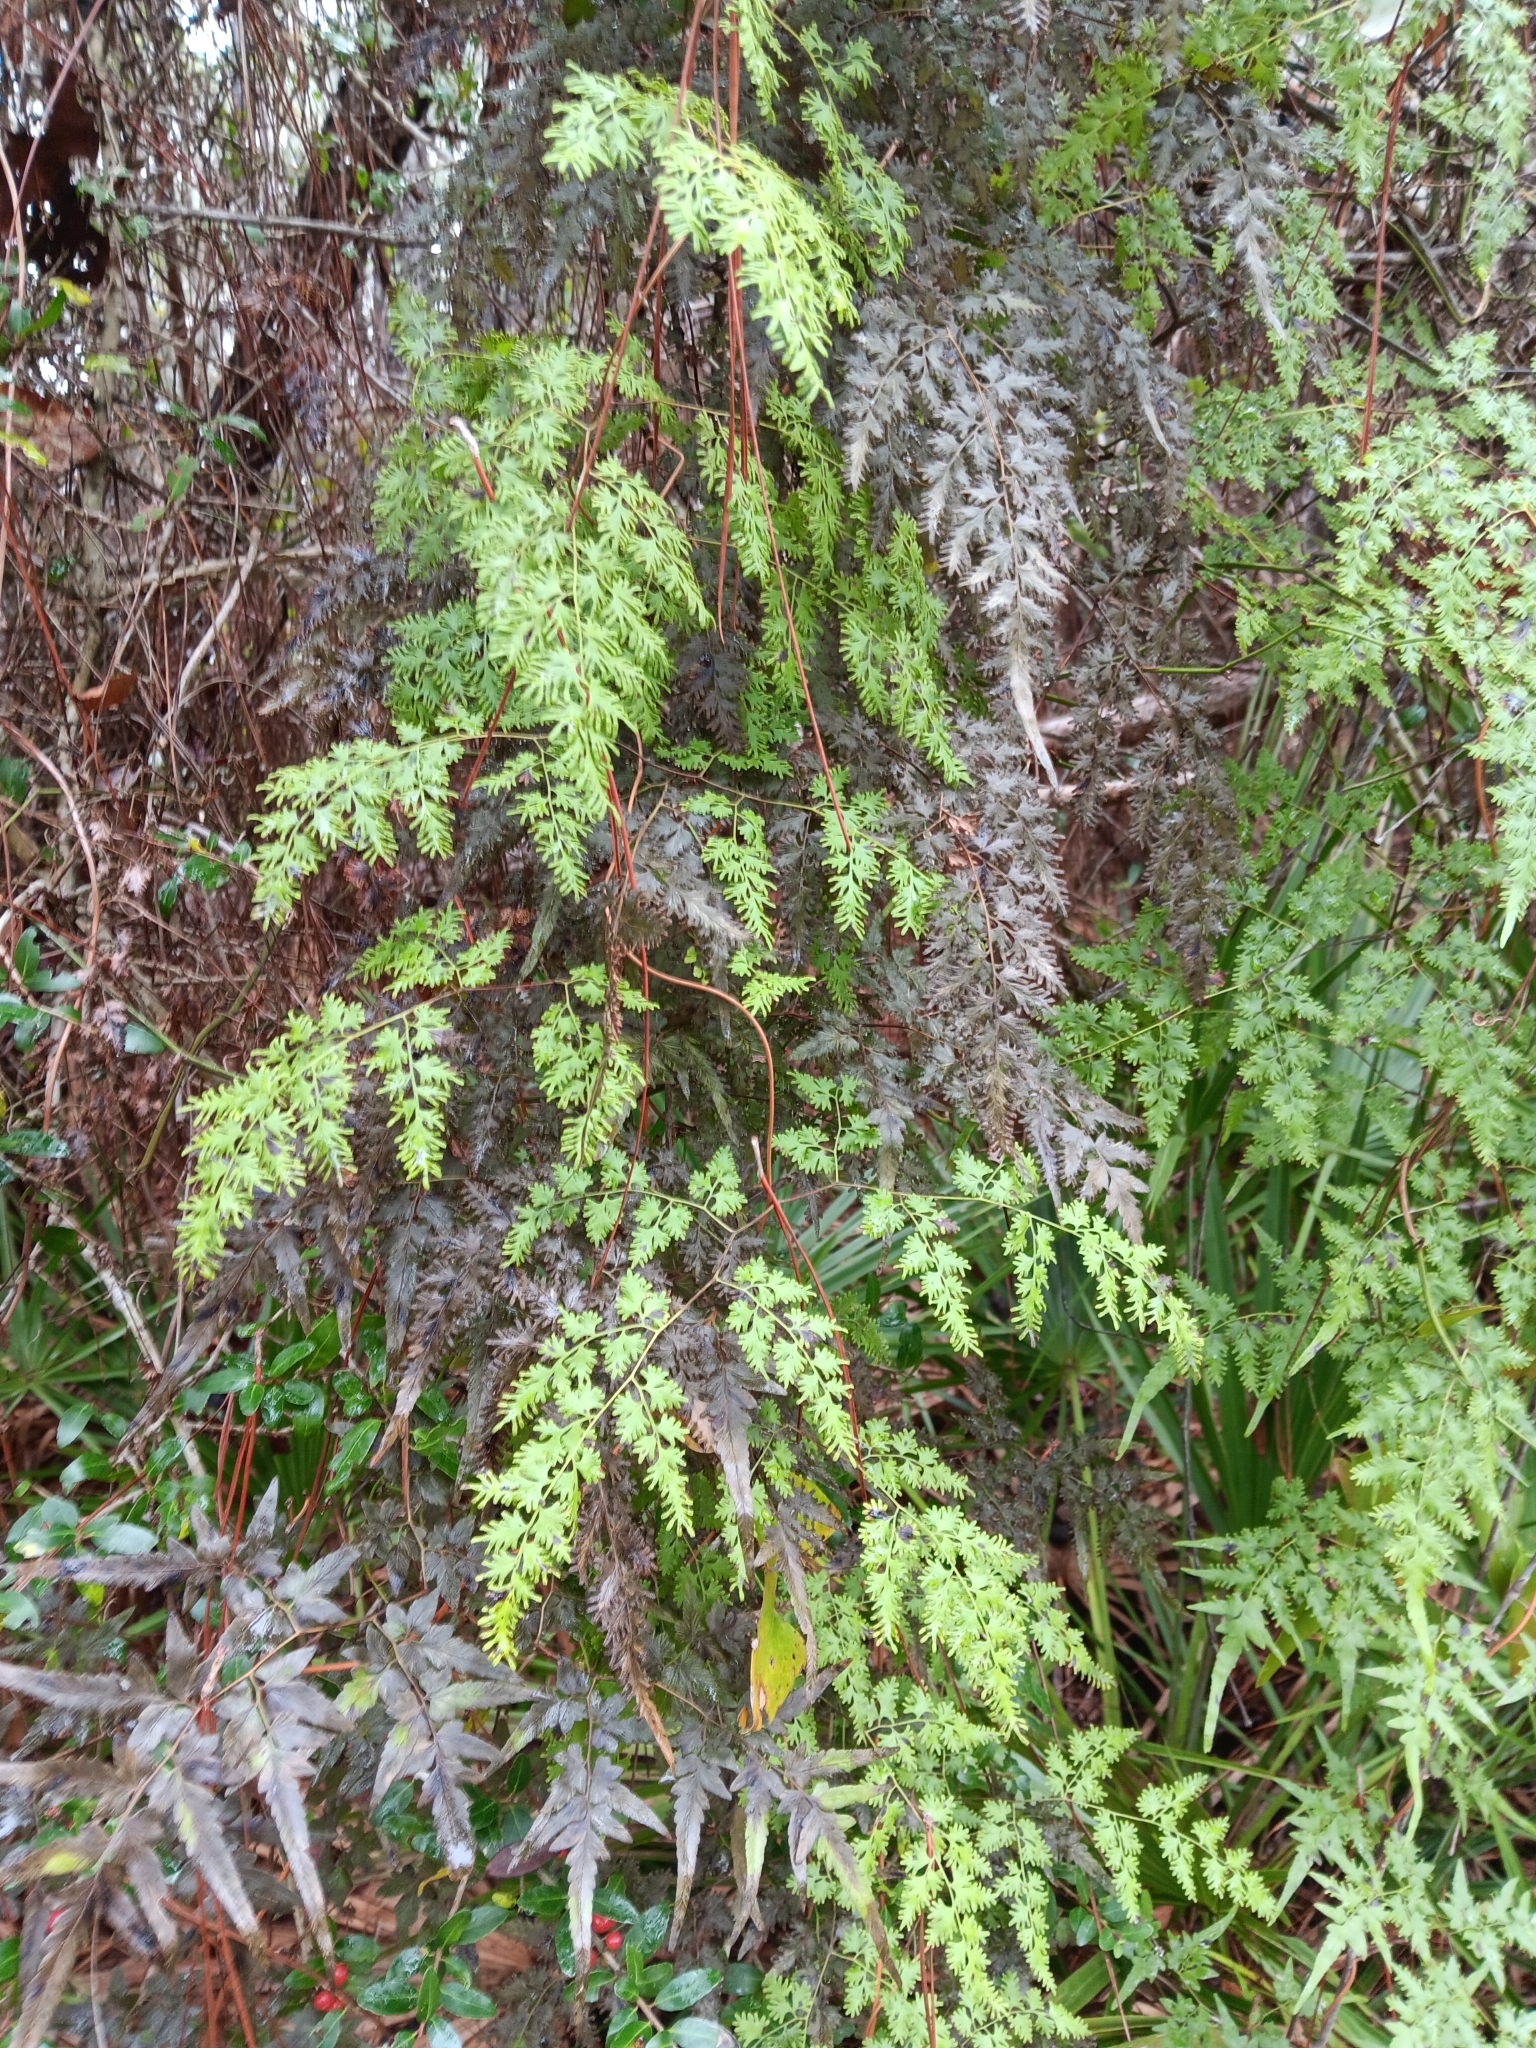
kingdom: Plantae
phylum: Tracheophyta
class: Polypodiopsida
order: Schizaeales
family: Lygodiaceae
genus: Lygodium
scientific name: Lygodium japonicum
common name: Japanese climbing fern
